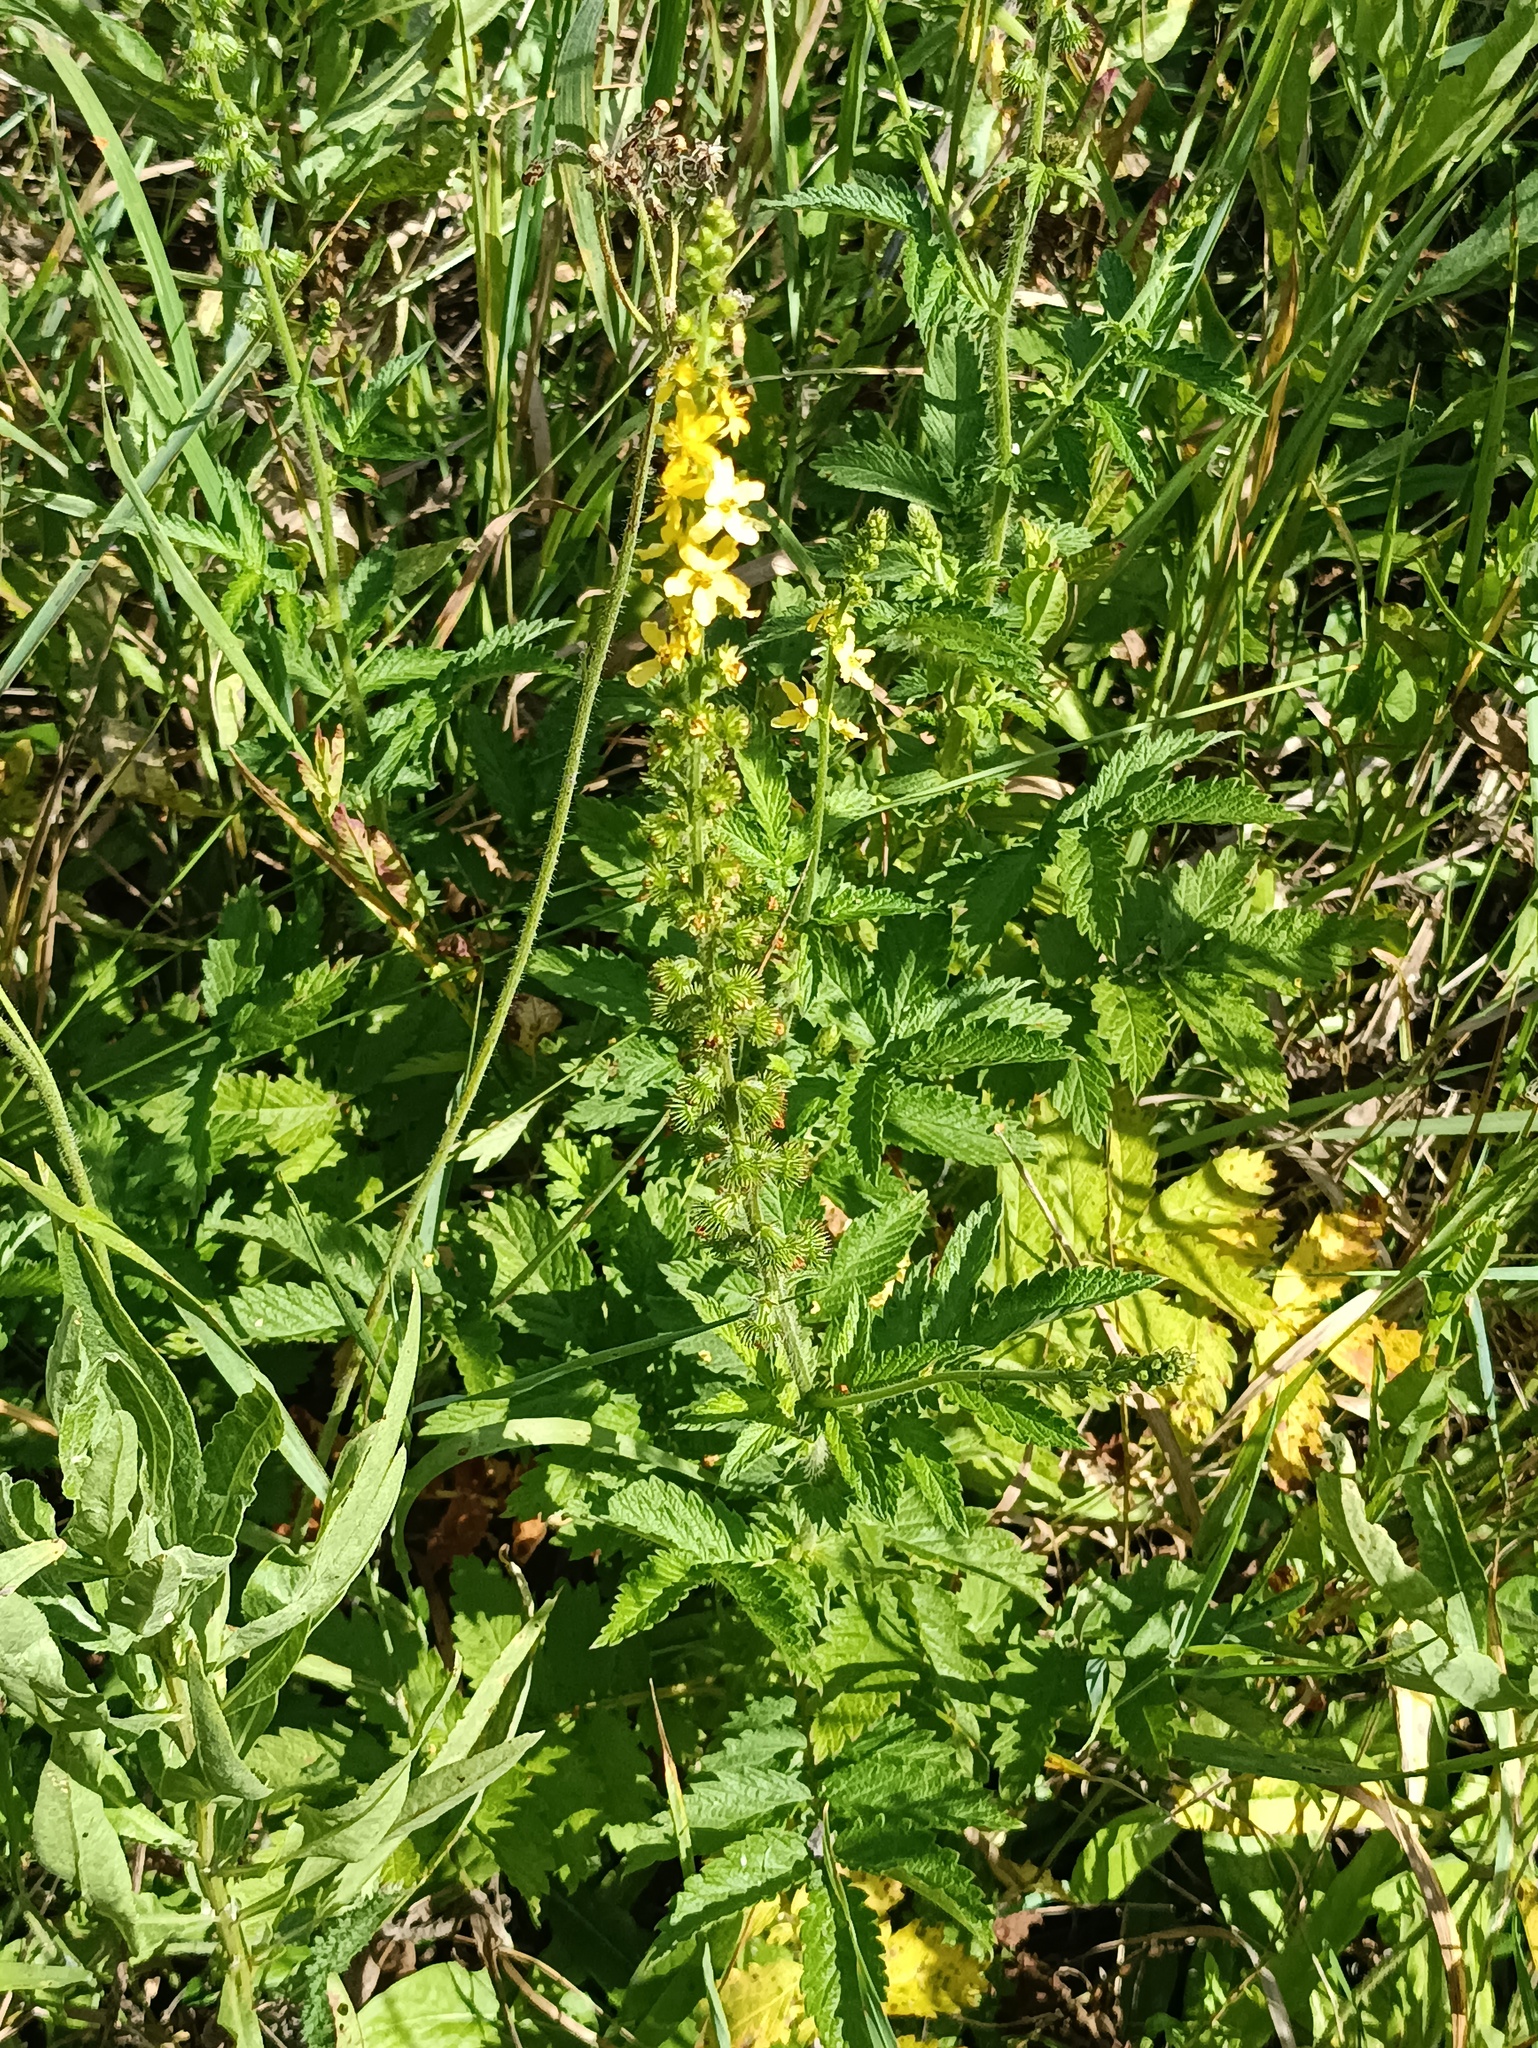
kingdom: Plantae
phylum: Tracheophyta
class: Magnoliopsida
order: Rosales
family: Rosaceae
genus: Agrimonia
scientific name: Agrimonia eupatoria
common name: Agrimony
